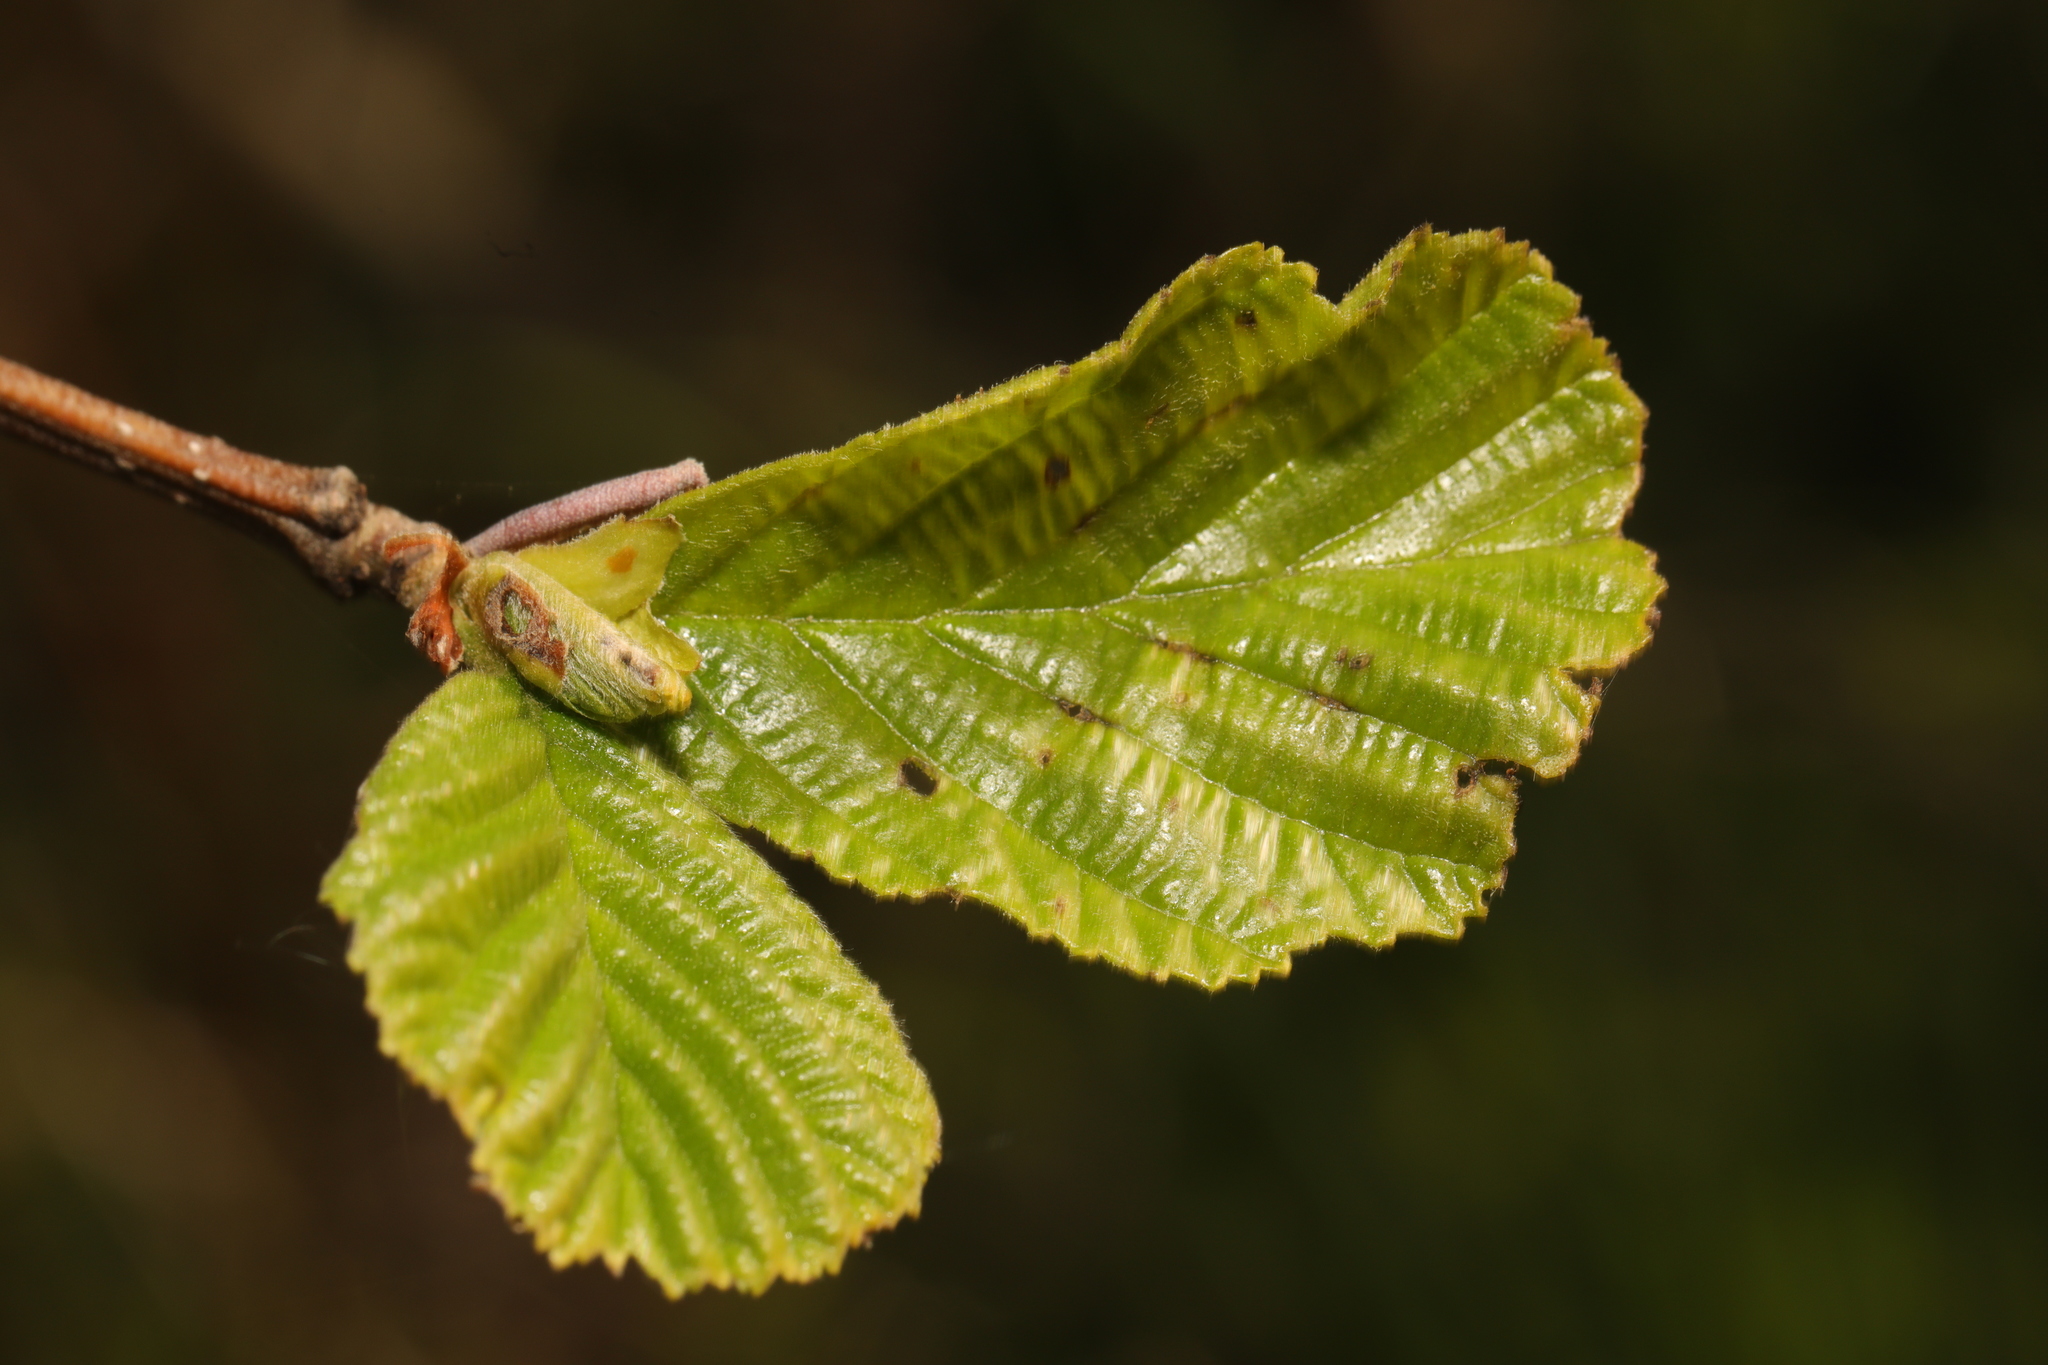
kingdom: Plantae
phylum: Tracheophyta
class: Magnoliopsida
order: Fagales
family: Betulaceae
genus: Alnus
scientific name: Alnus glutinosa
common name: Black alder
